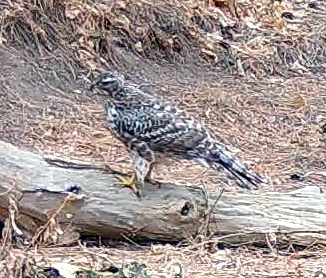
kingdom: Animalia
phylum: Chordata
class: Aves
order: Accipitriformes
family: Accipitridae
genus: Accipiter
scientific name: Accipiter gentilis
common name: Northern goshawk
